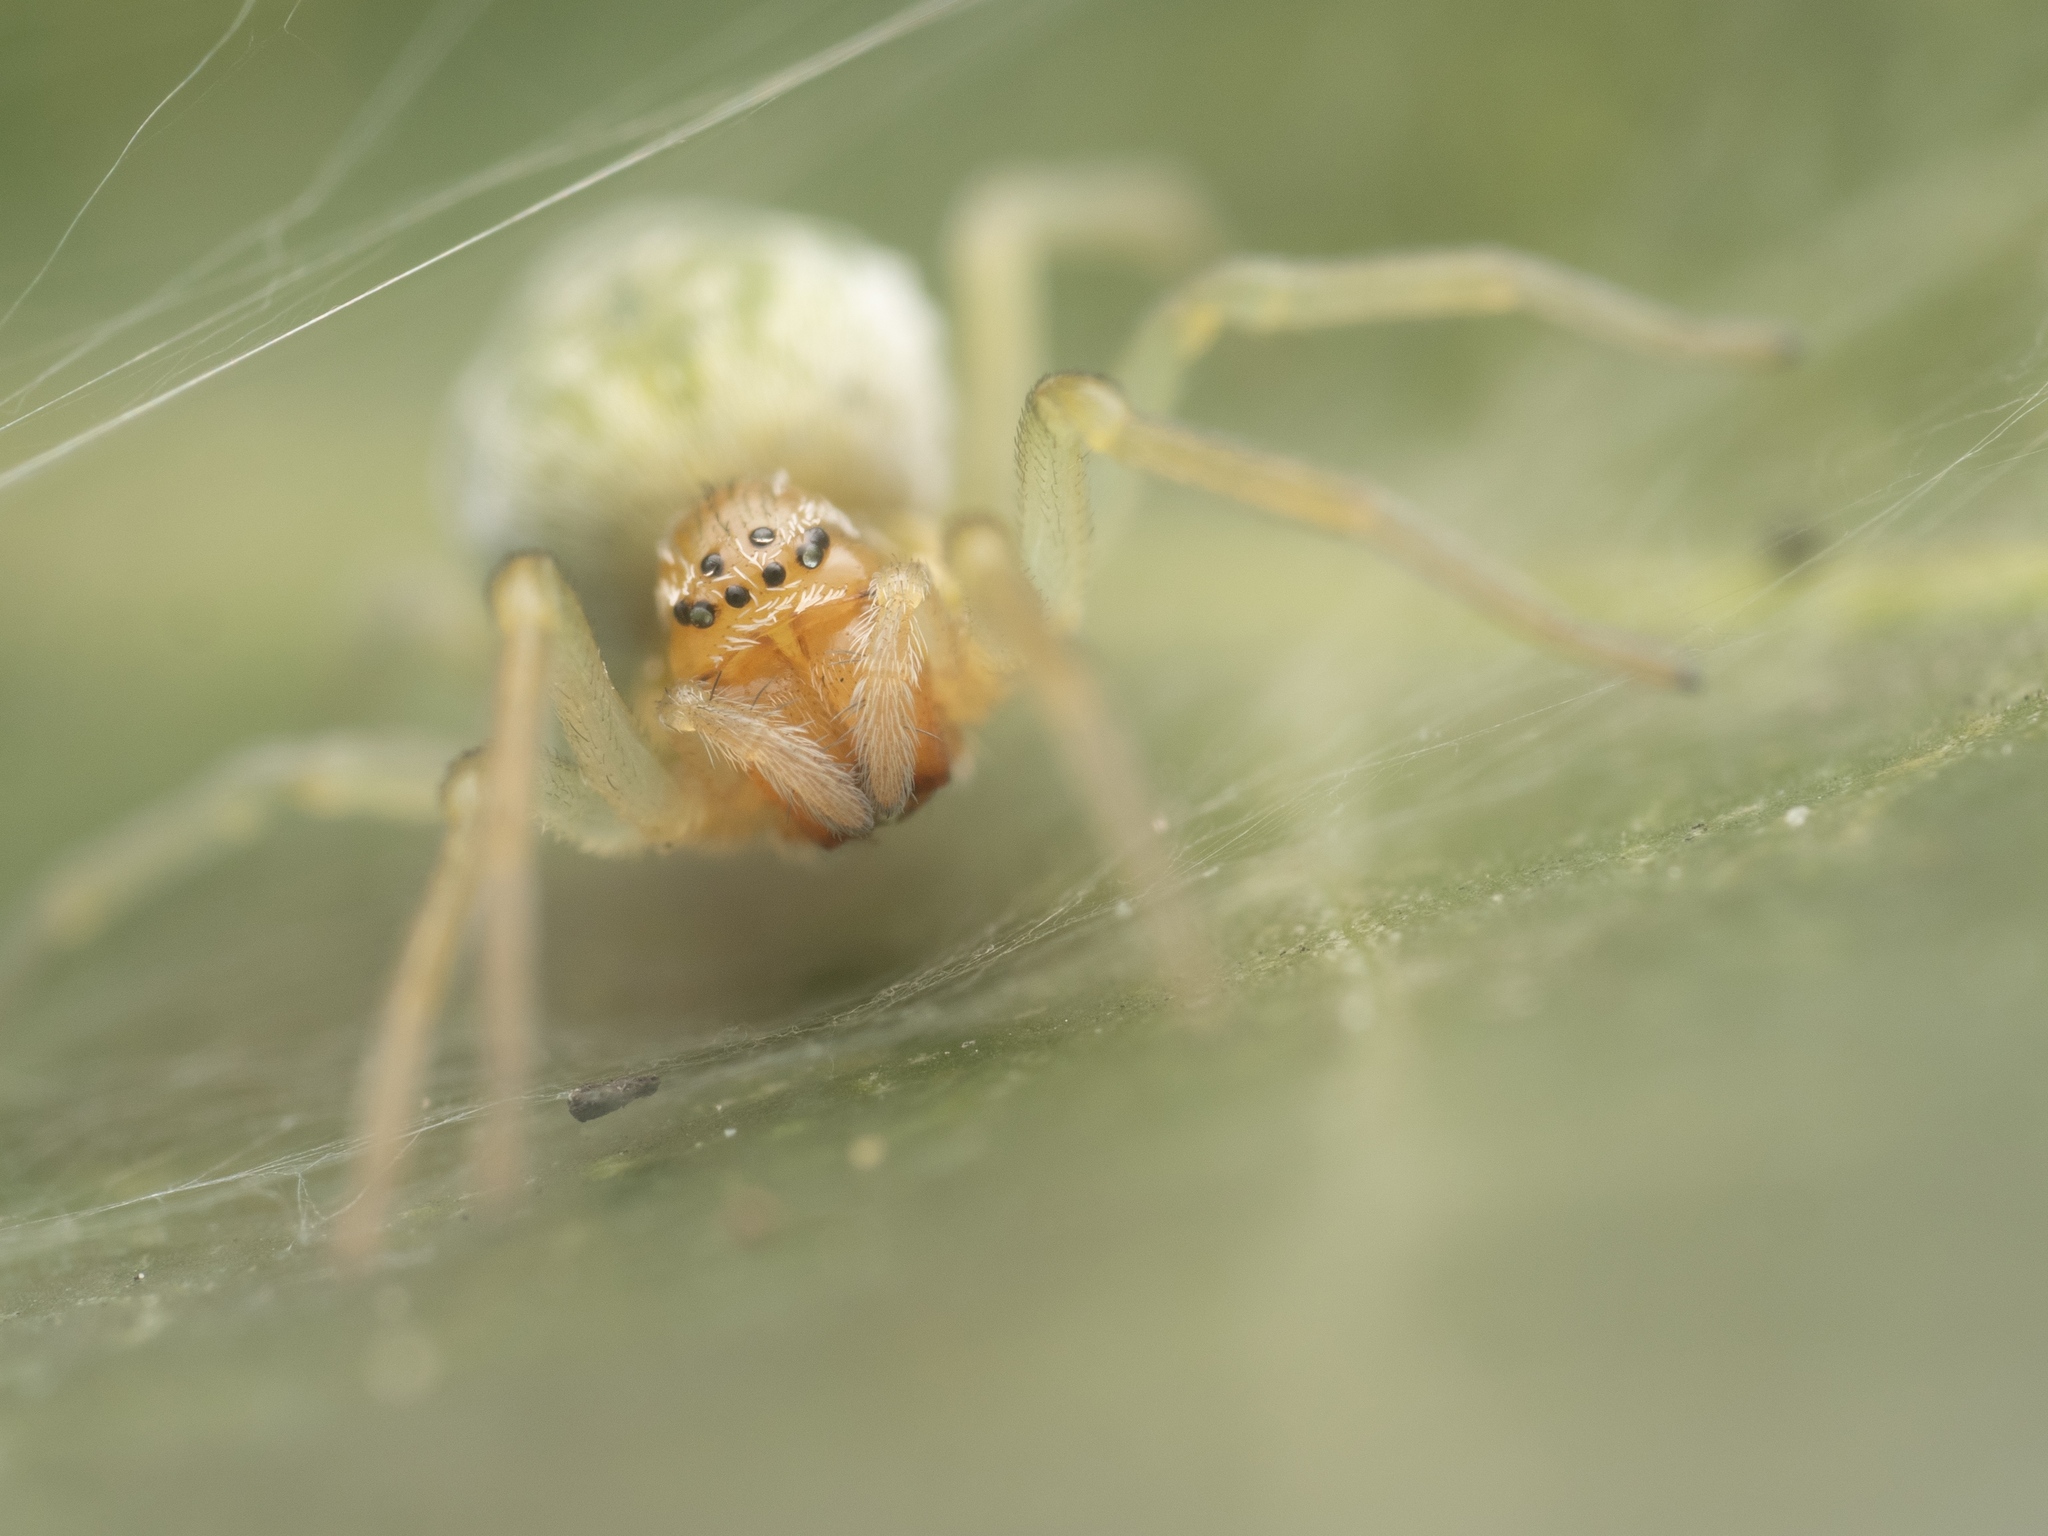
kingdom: Animalia
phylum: Arthropoda
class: Arachnida
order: Araneae
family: Dictynidae
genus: Nigma
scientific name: Nigma walckenaeri
